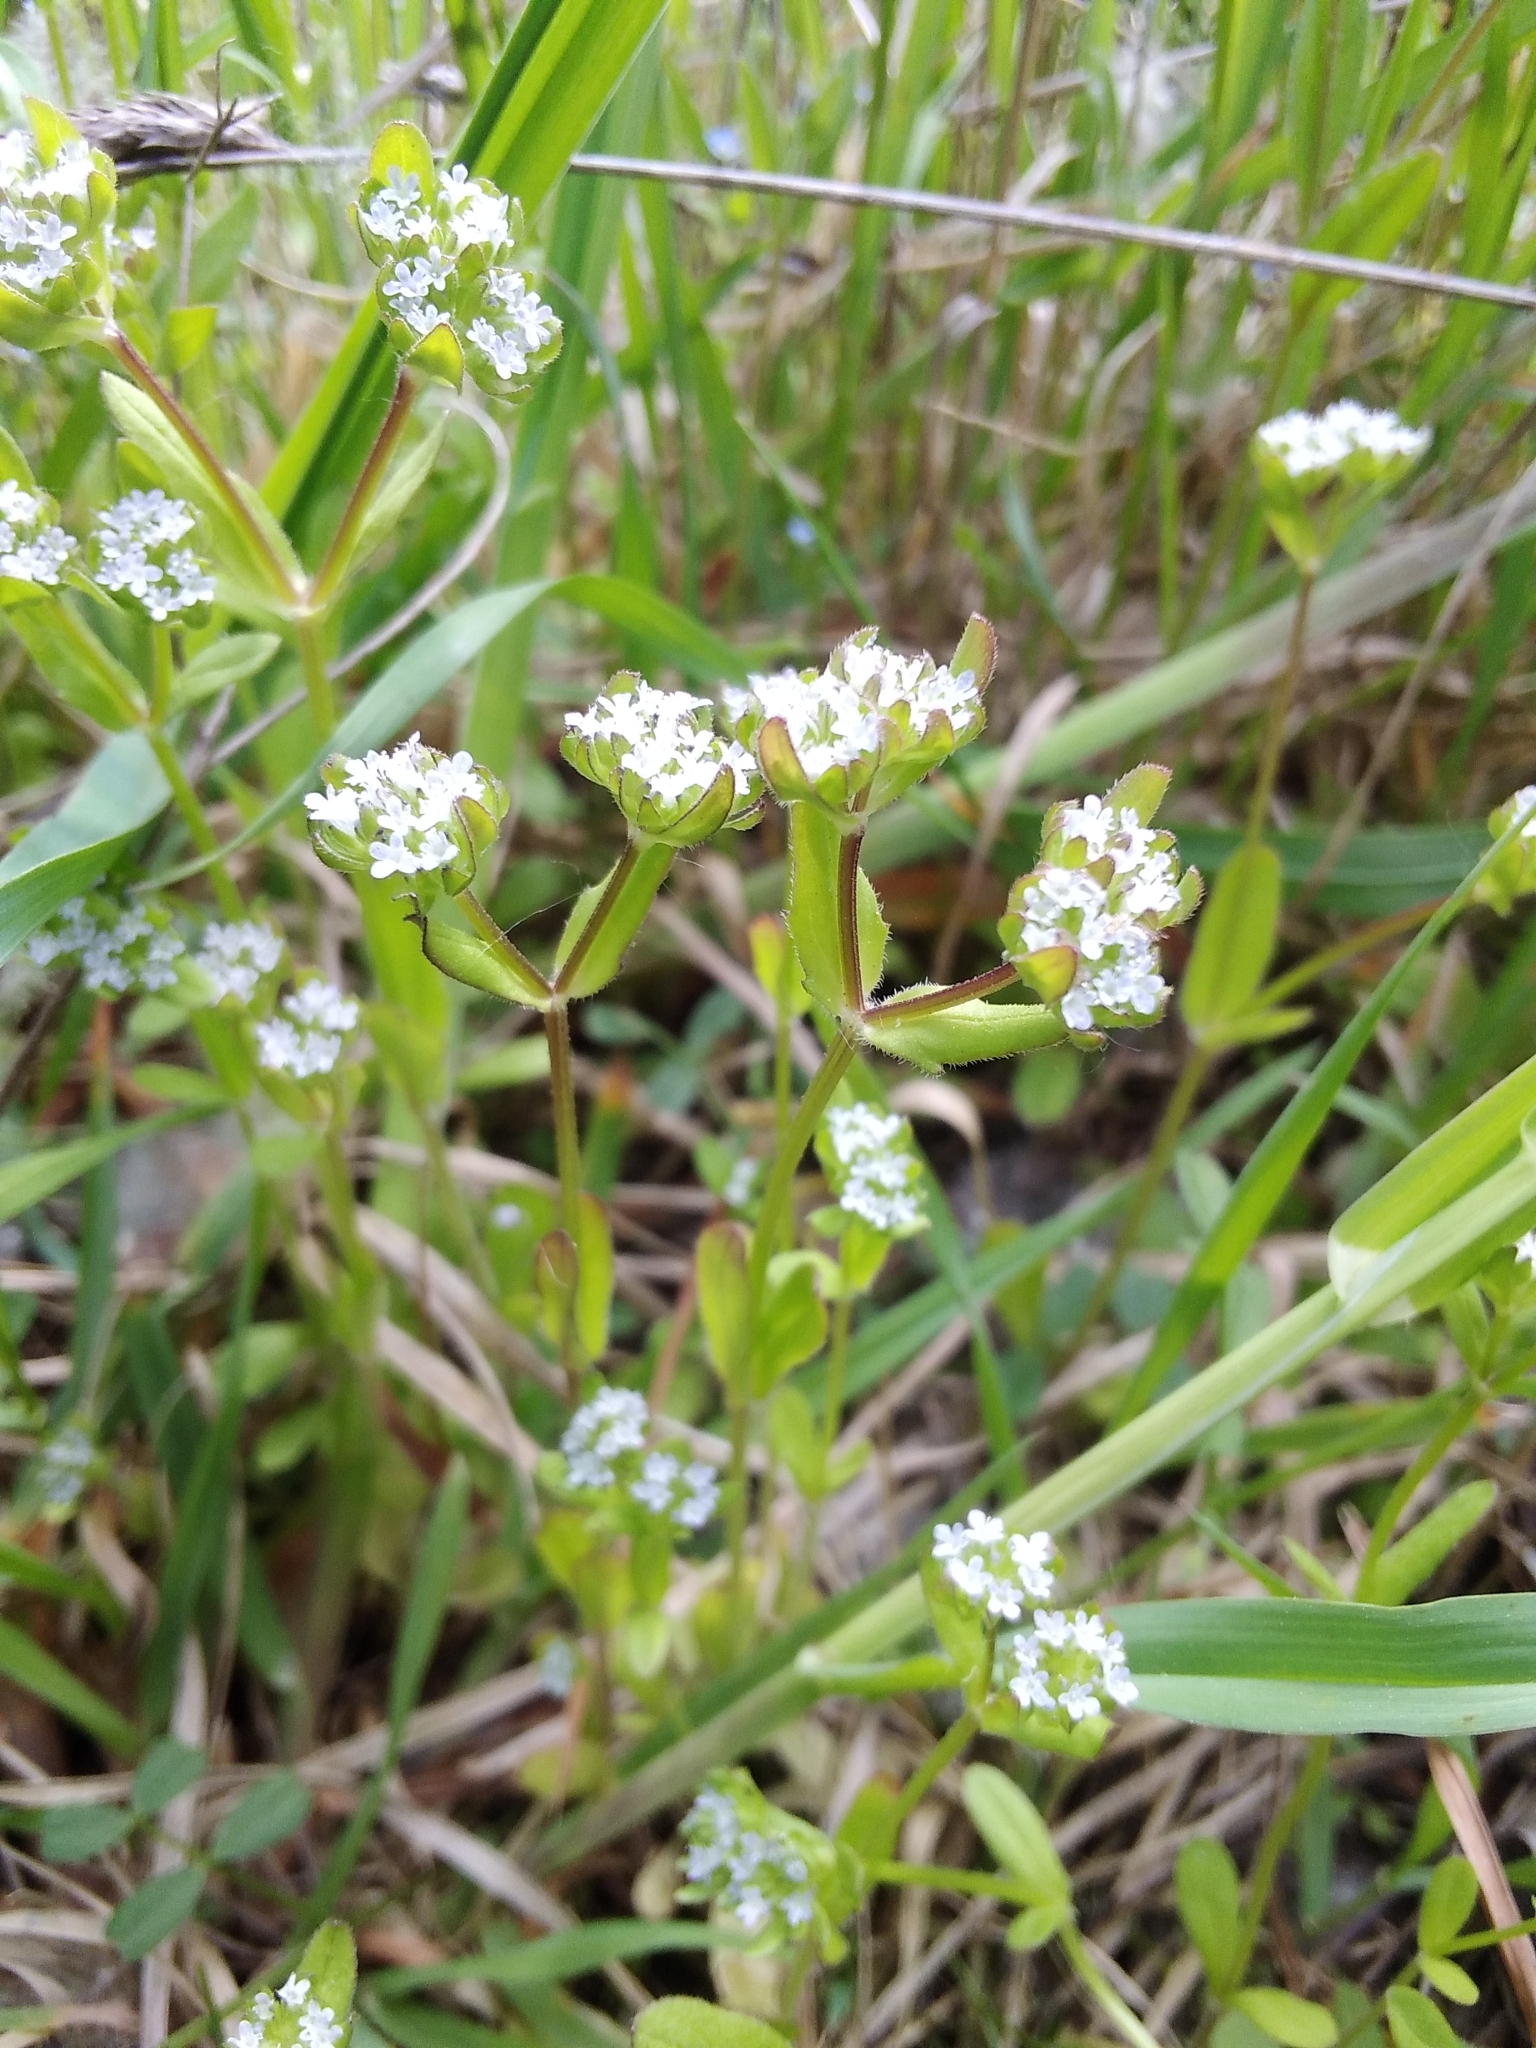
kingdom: Plantae
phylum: Tracheophyta
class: Magnoliopsida
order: Dipsacales
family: Caprifoliaceae
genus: Valerianella
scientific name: Valerianella locusta
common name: Common cornsalad
